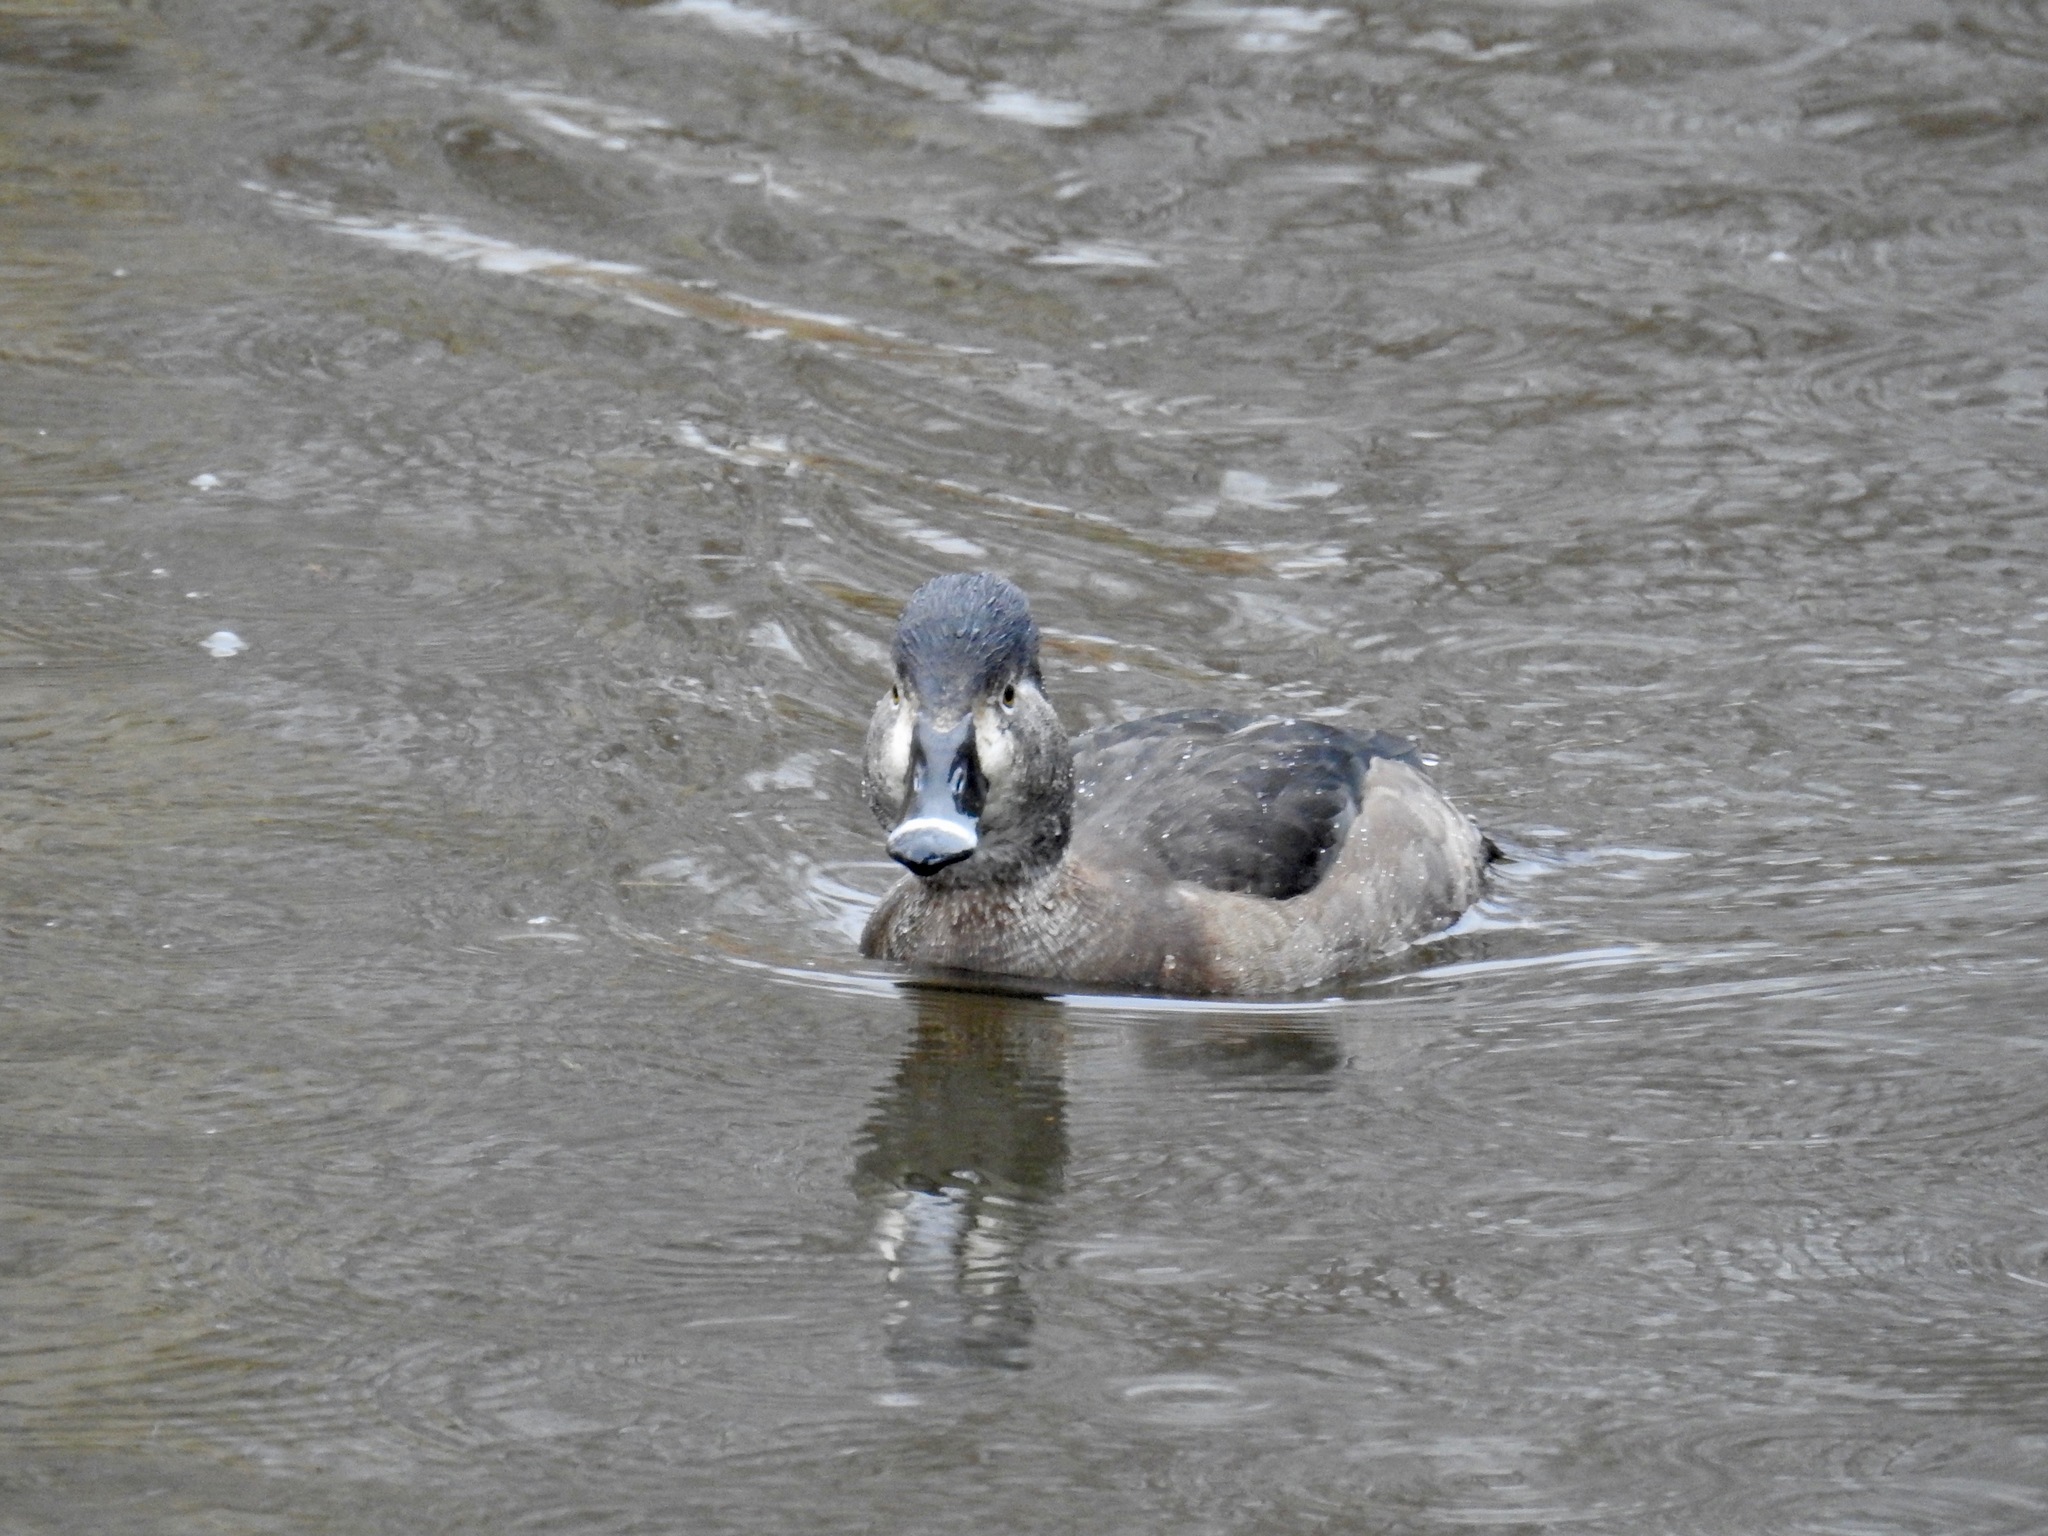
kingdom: Animalia
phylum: Chordata
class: Aves
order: Anseriformes
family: Anatidae
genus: Aythya
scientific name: Aythya collaris
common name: Ring-necked duck
